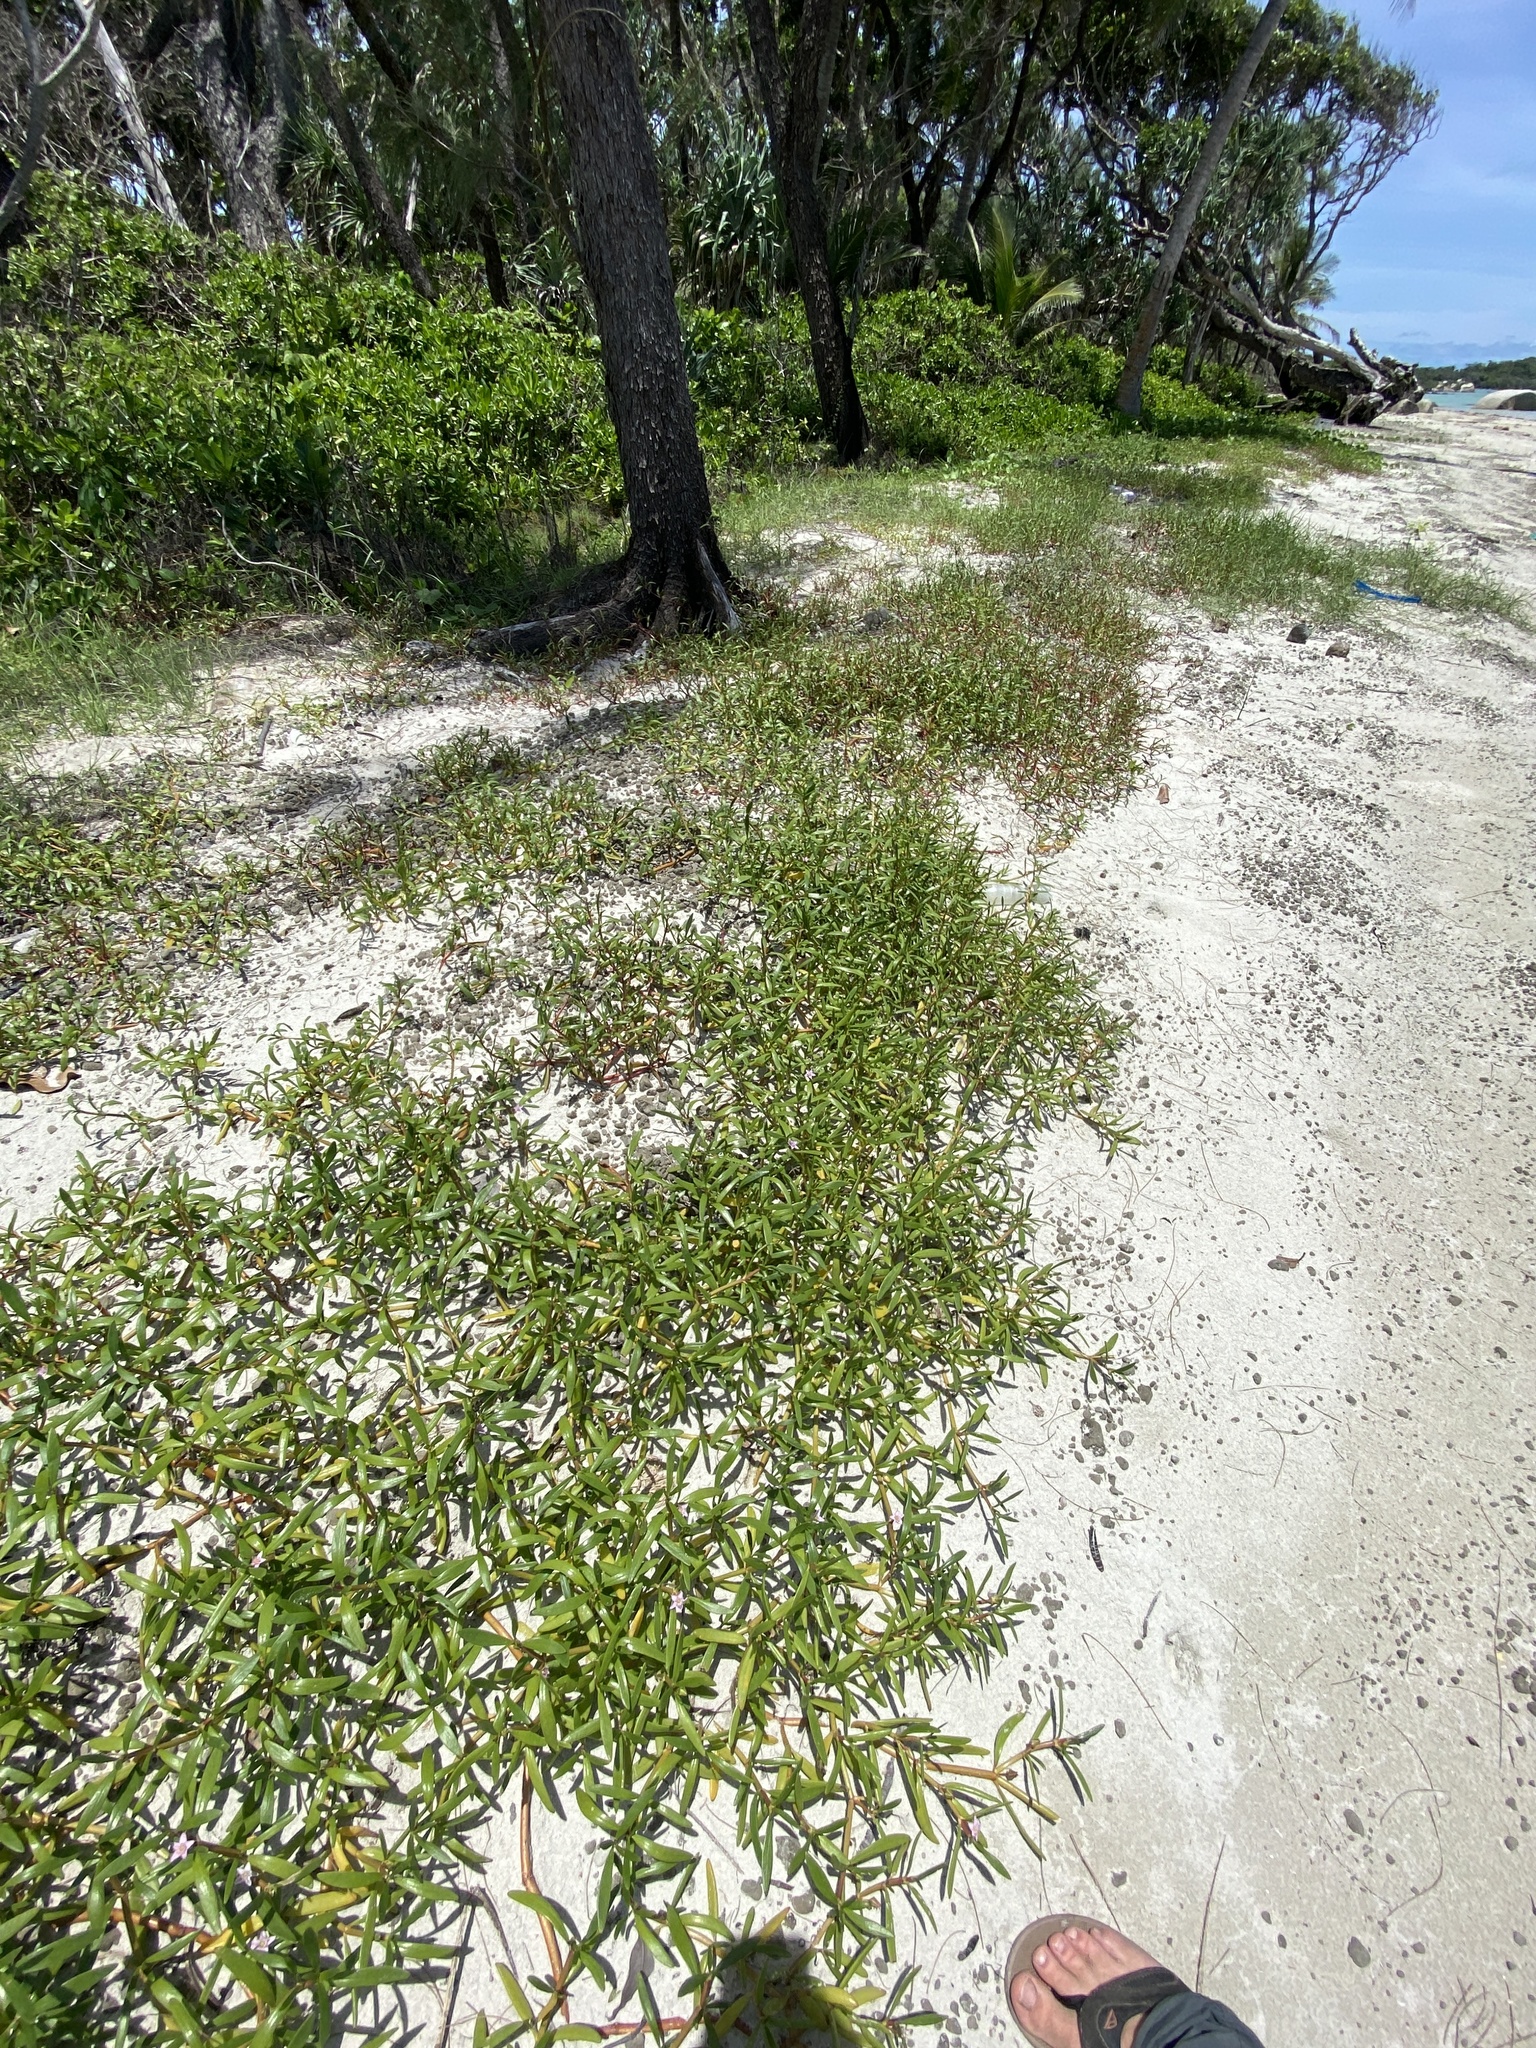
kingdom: Plantae
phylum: Tracheophyta
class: Magnoliopsida
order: Caryophyllales
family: Aizoaceae
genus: Sesuvium
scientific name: Sesuvium portulacastrum
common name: Sea-purslane
